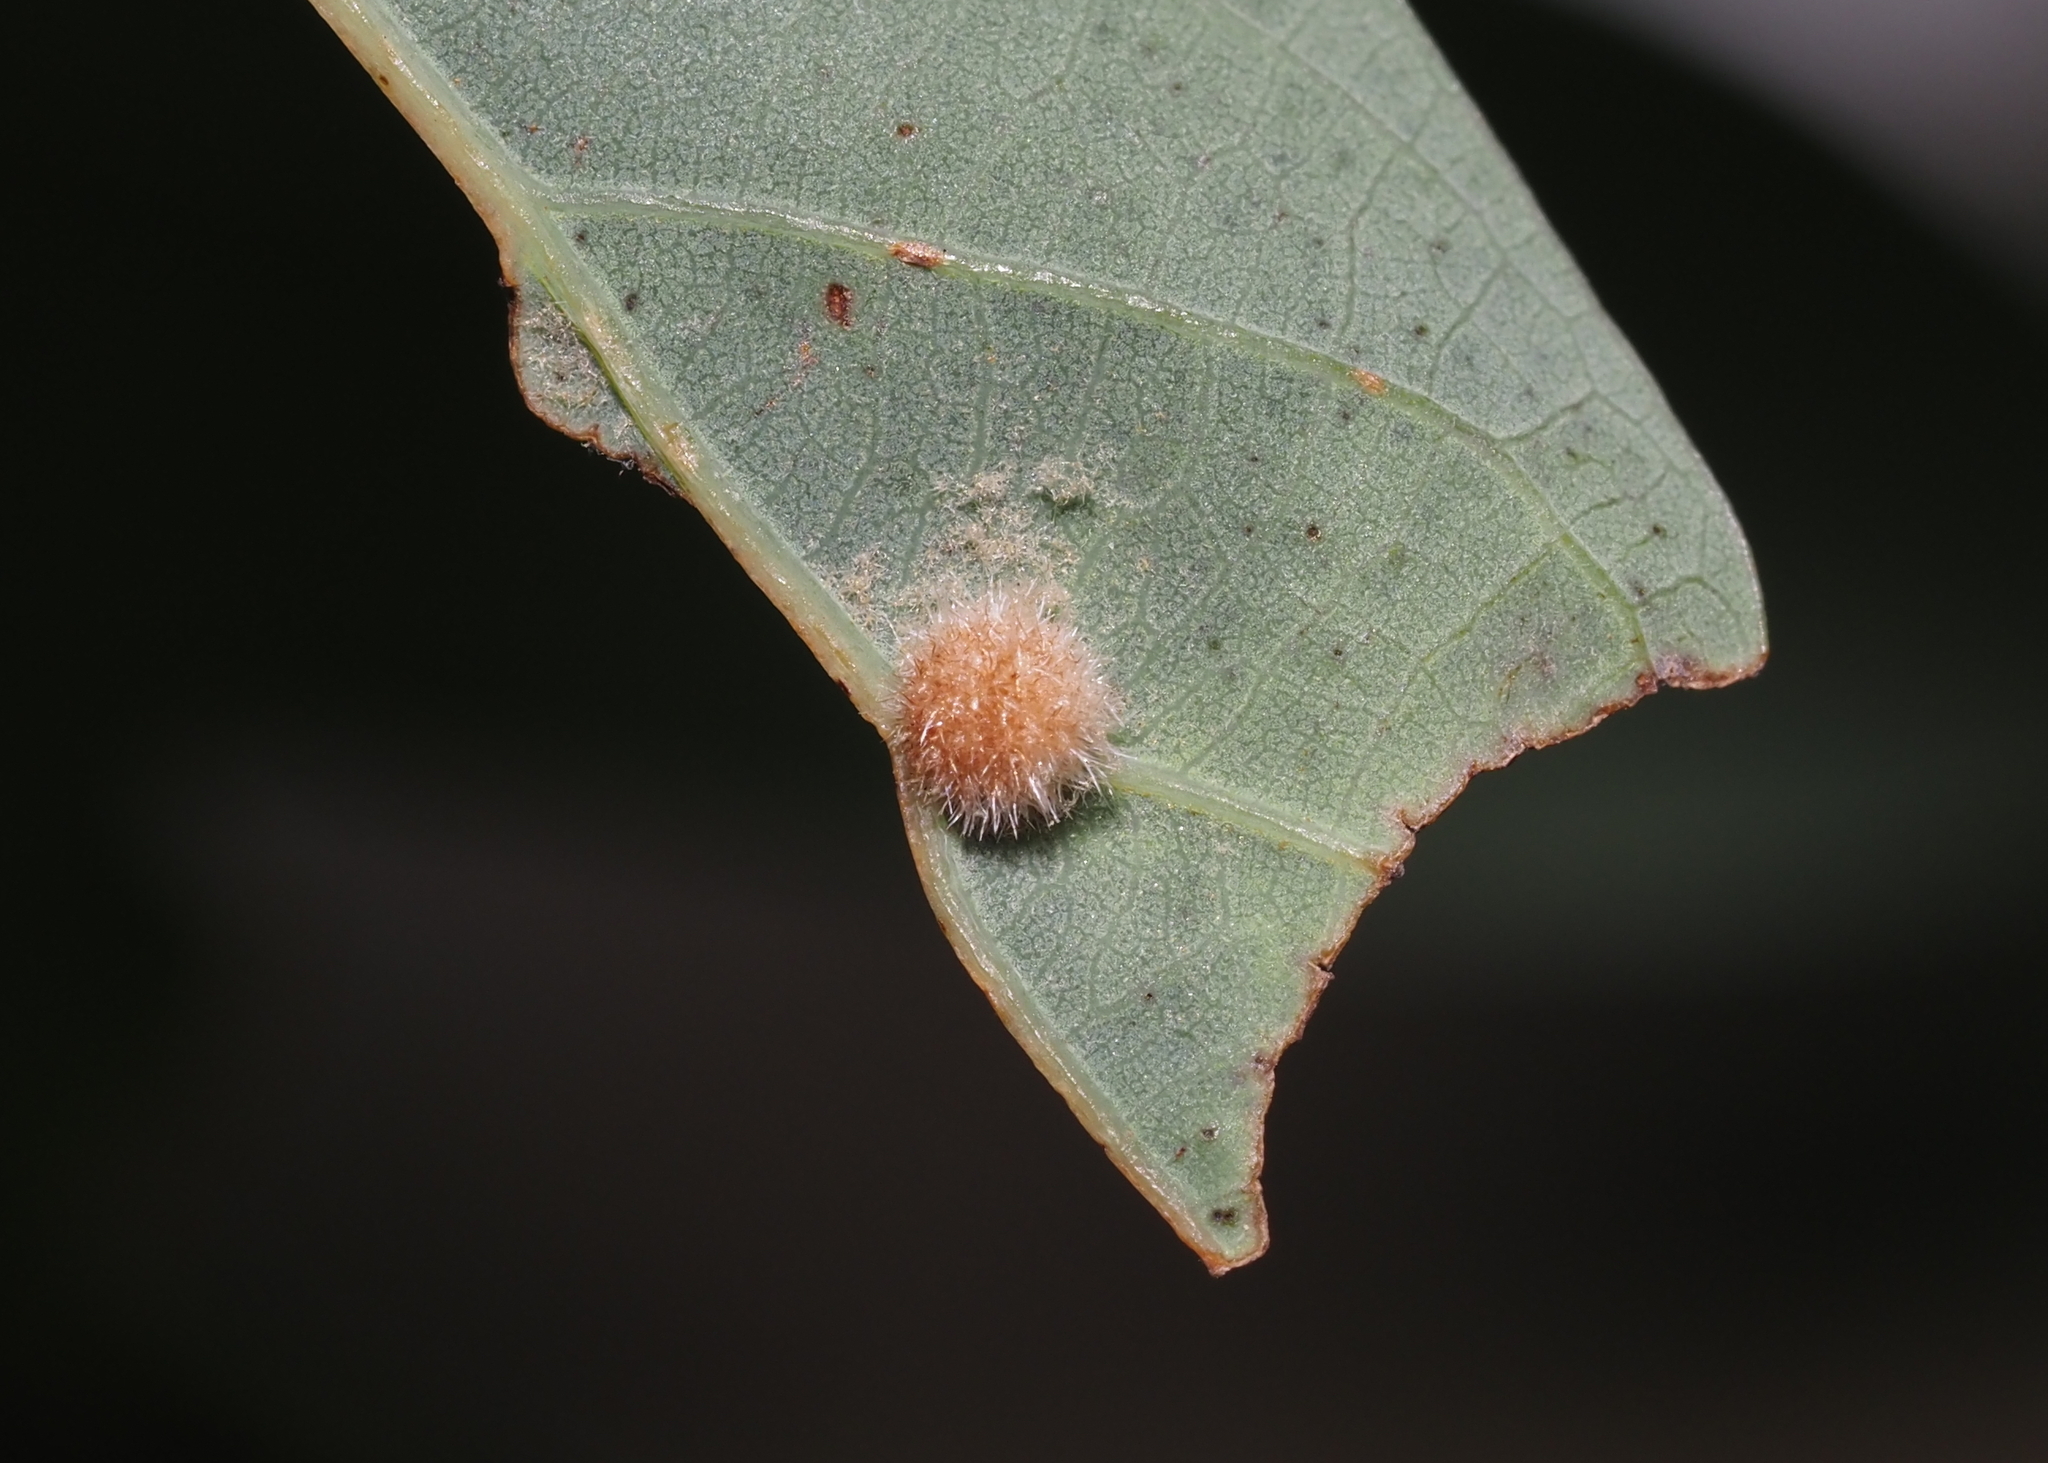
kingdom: Animalia
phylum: Arthropoda
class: Insecta
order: Hymenoptera
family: Cynipidae
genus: Philonix
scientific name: Philonix fulvicollis
